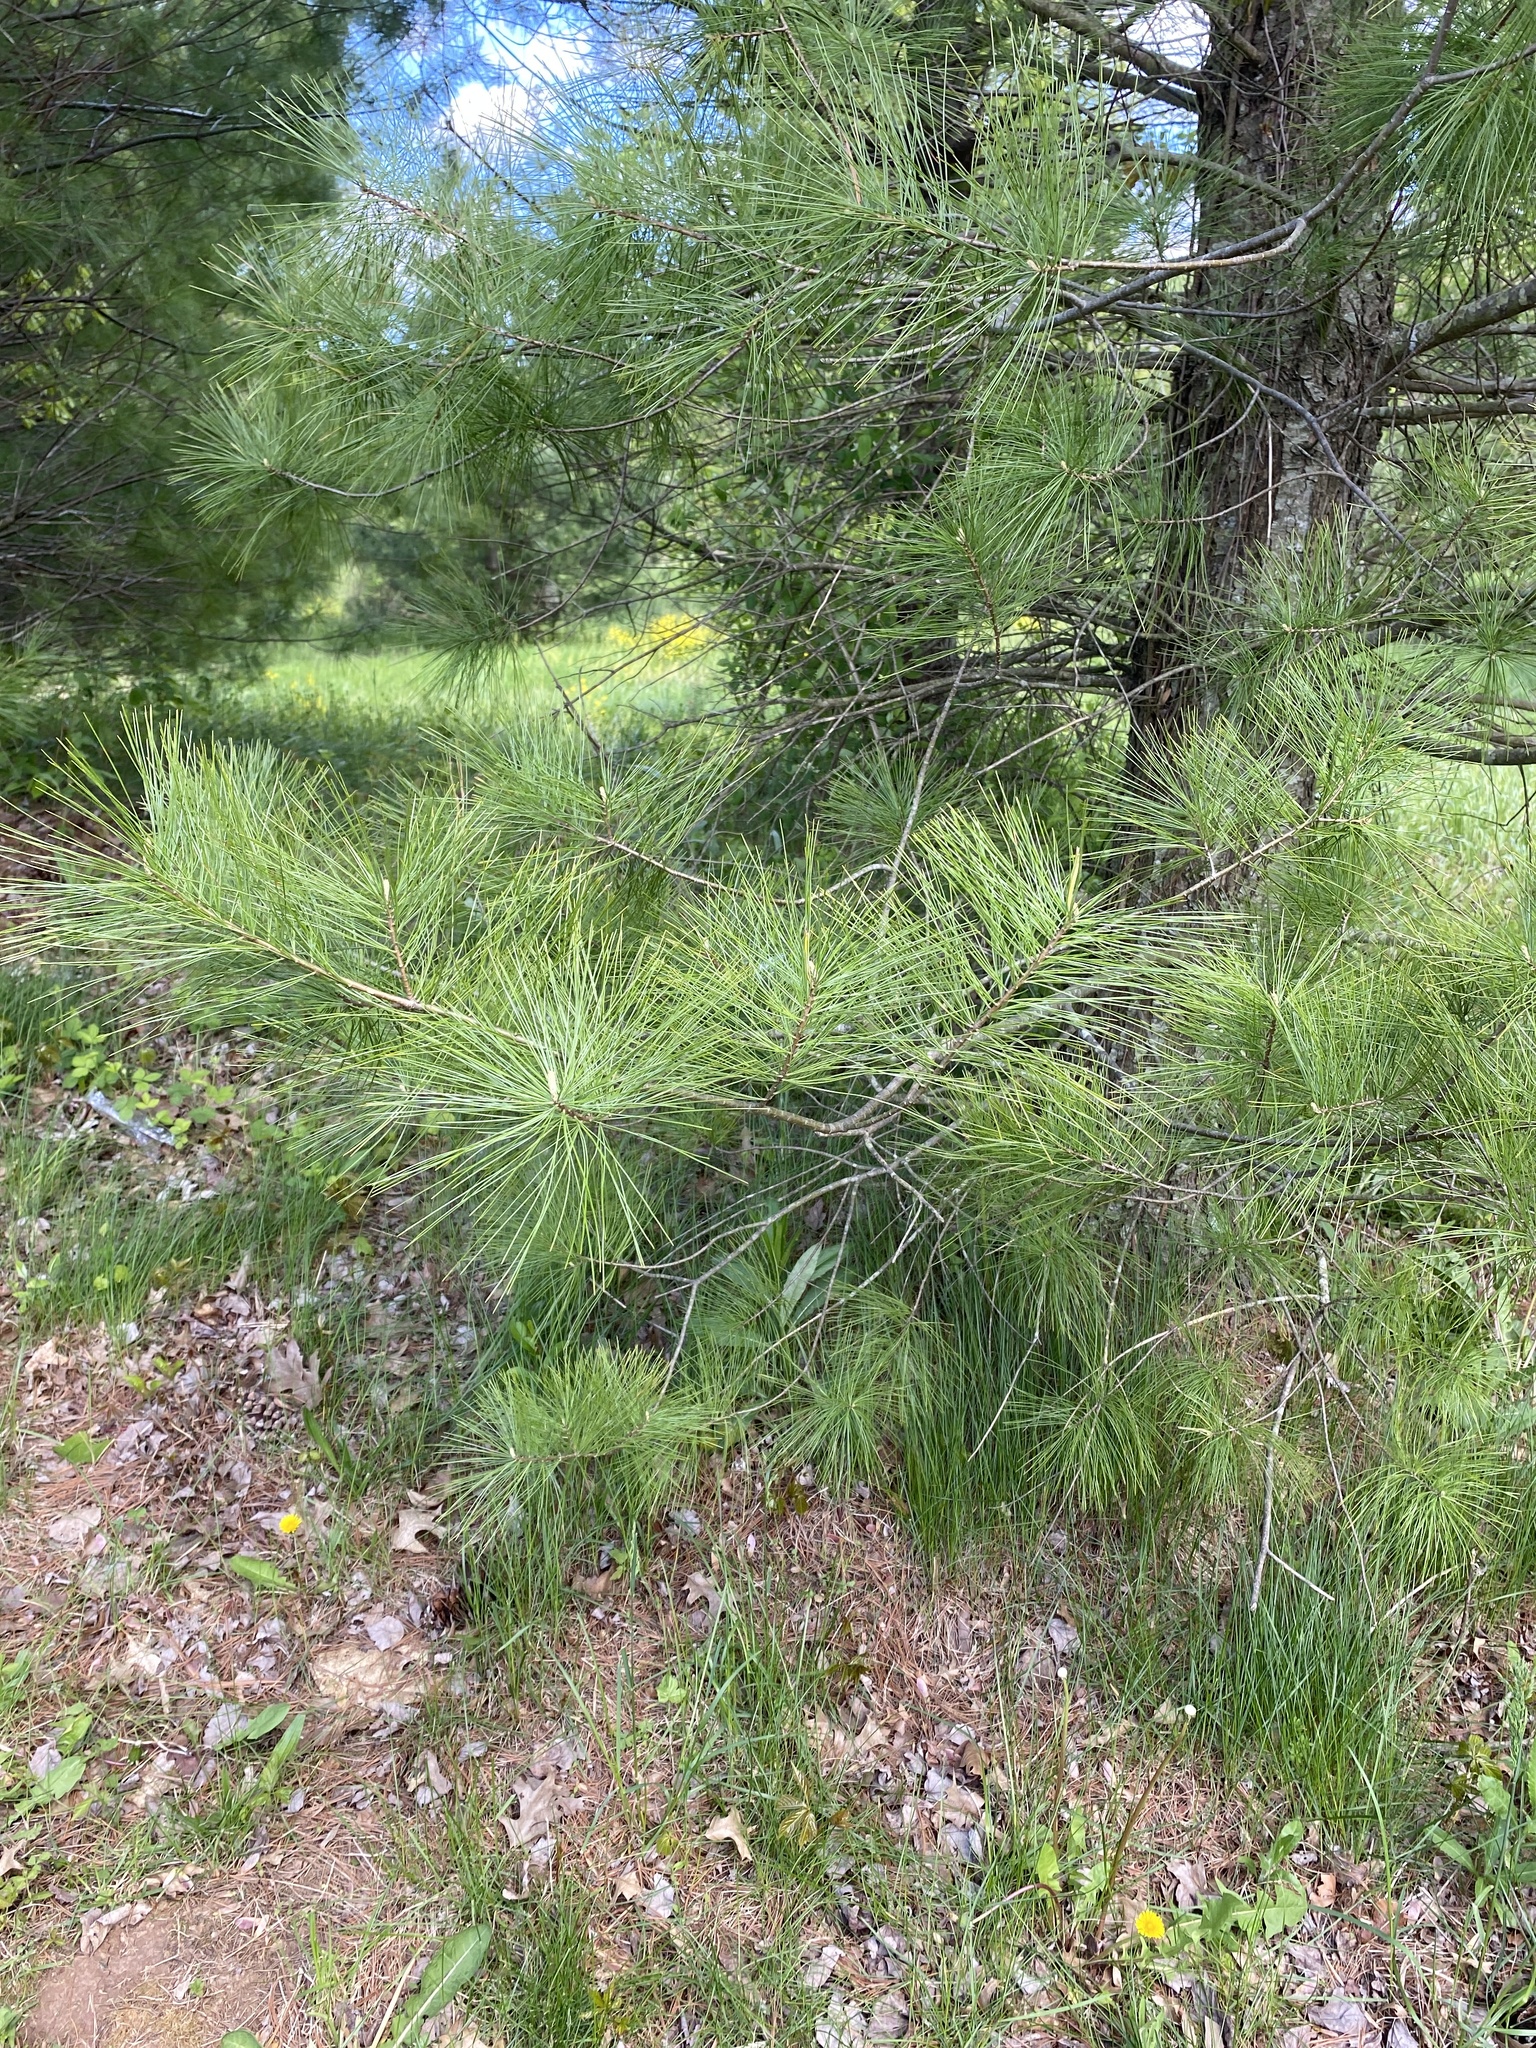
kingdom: Plantae
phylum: Tracheophyta
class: Pinopsida
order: Pinales
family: Pinaceae
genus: Pinus
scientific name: Pinus strobus
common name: Weymouth pine
